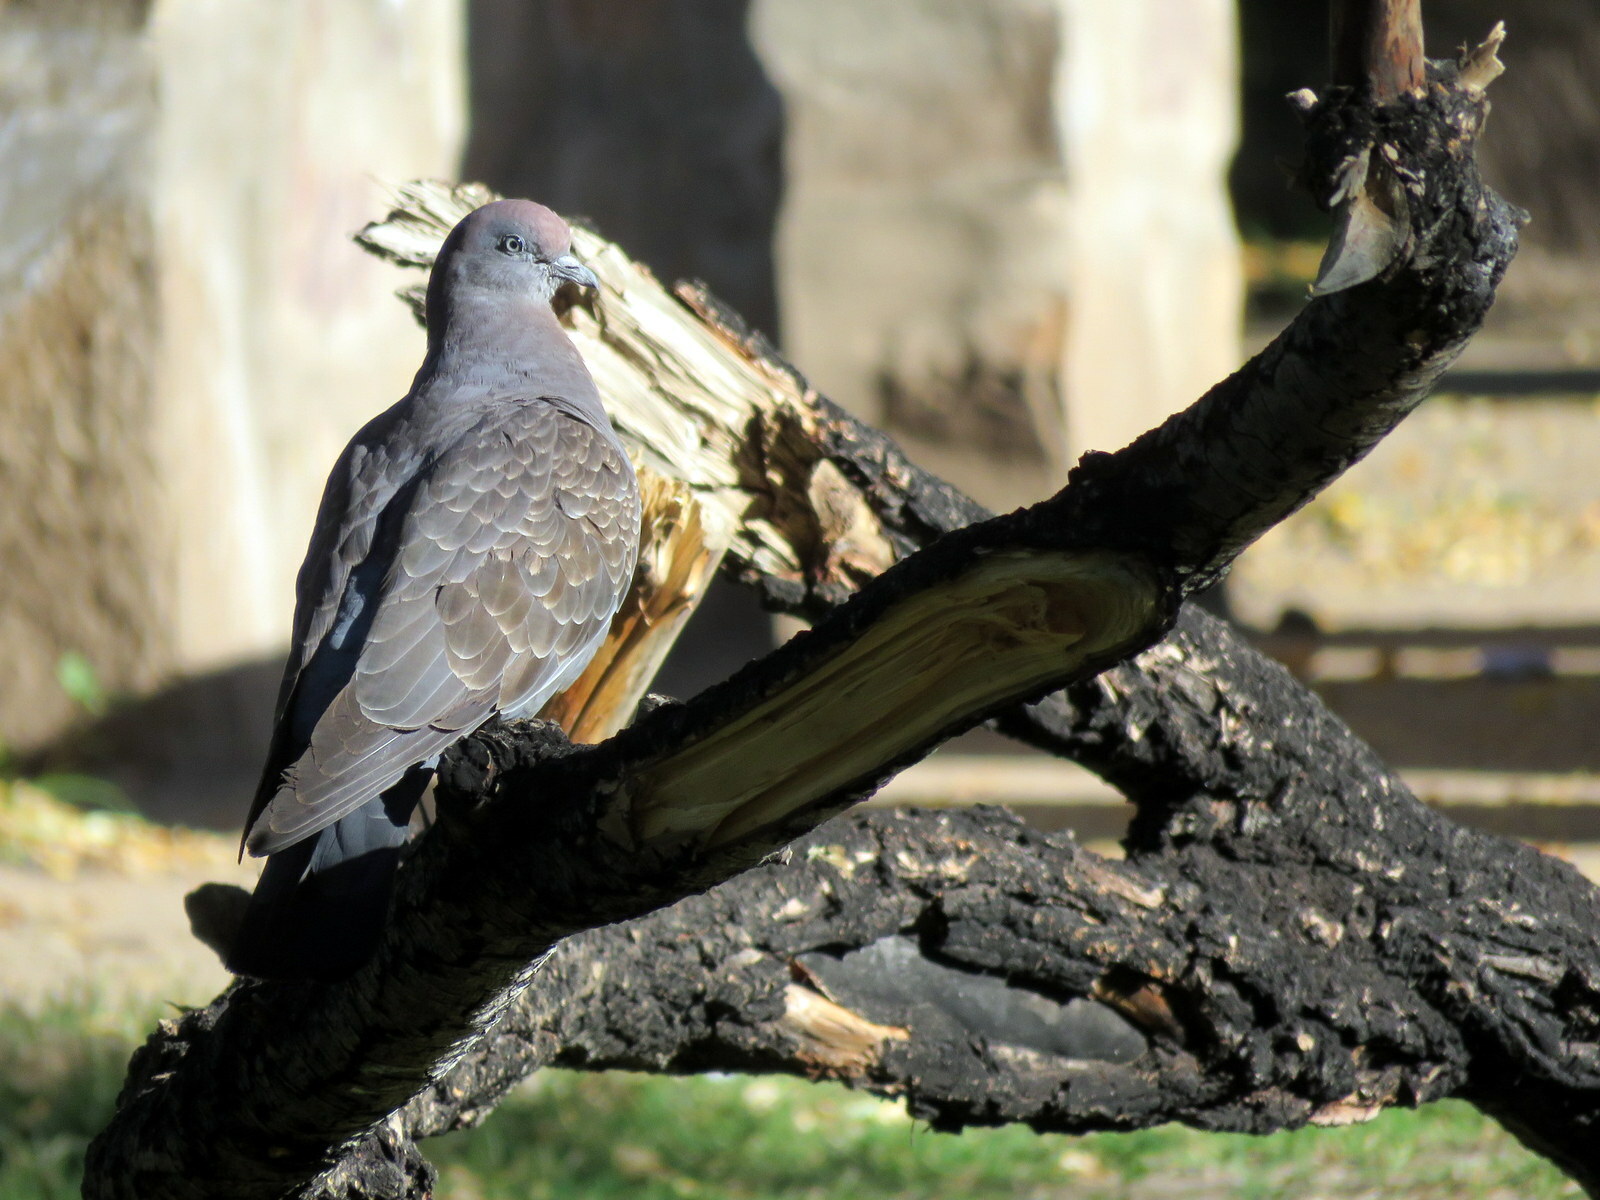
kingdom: Animalia
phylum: Chordata
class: Aves
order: Columbiformes
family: Columbidae
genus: Patagioenas
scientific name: Patagioenas maculosa
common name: Spot-winged pigeon
